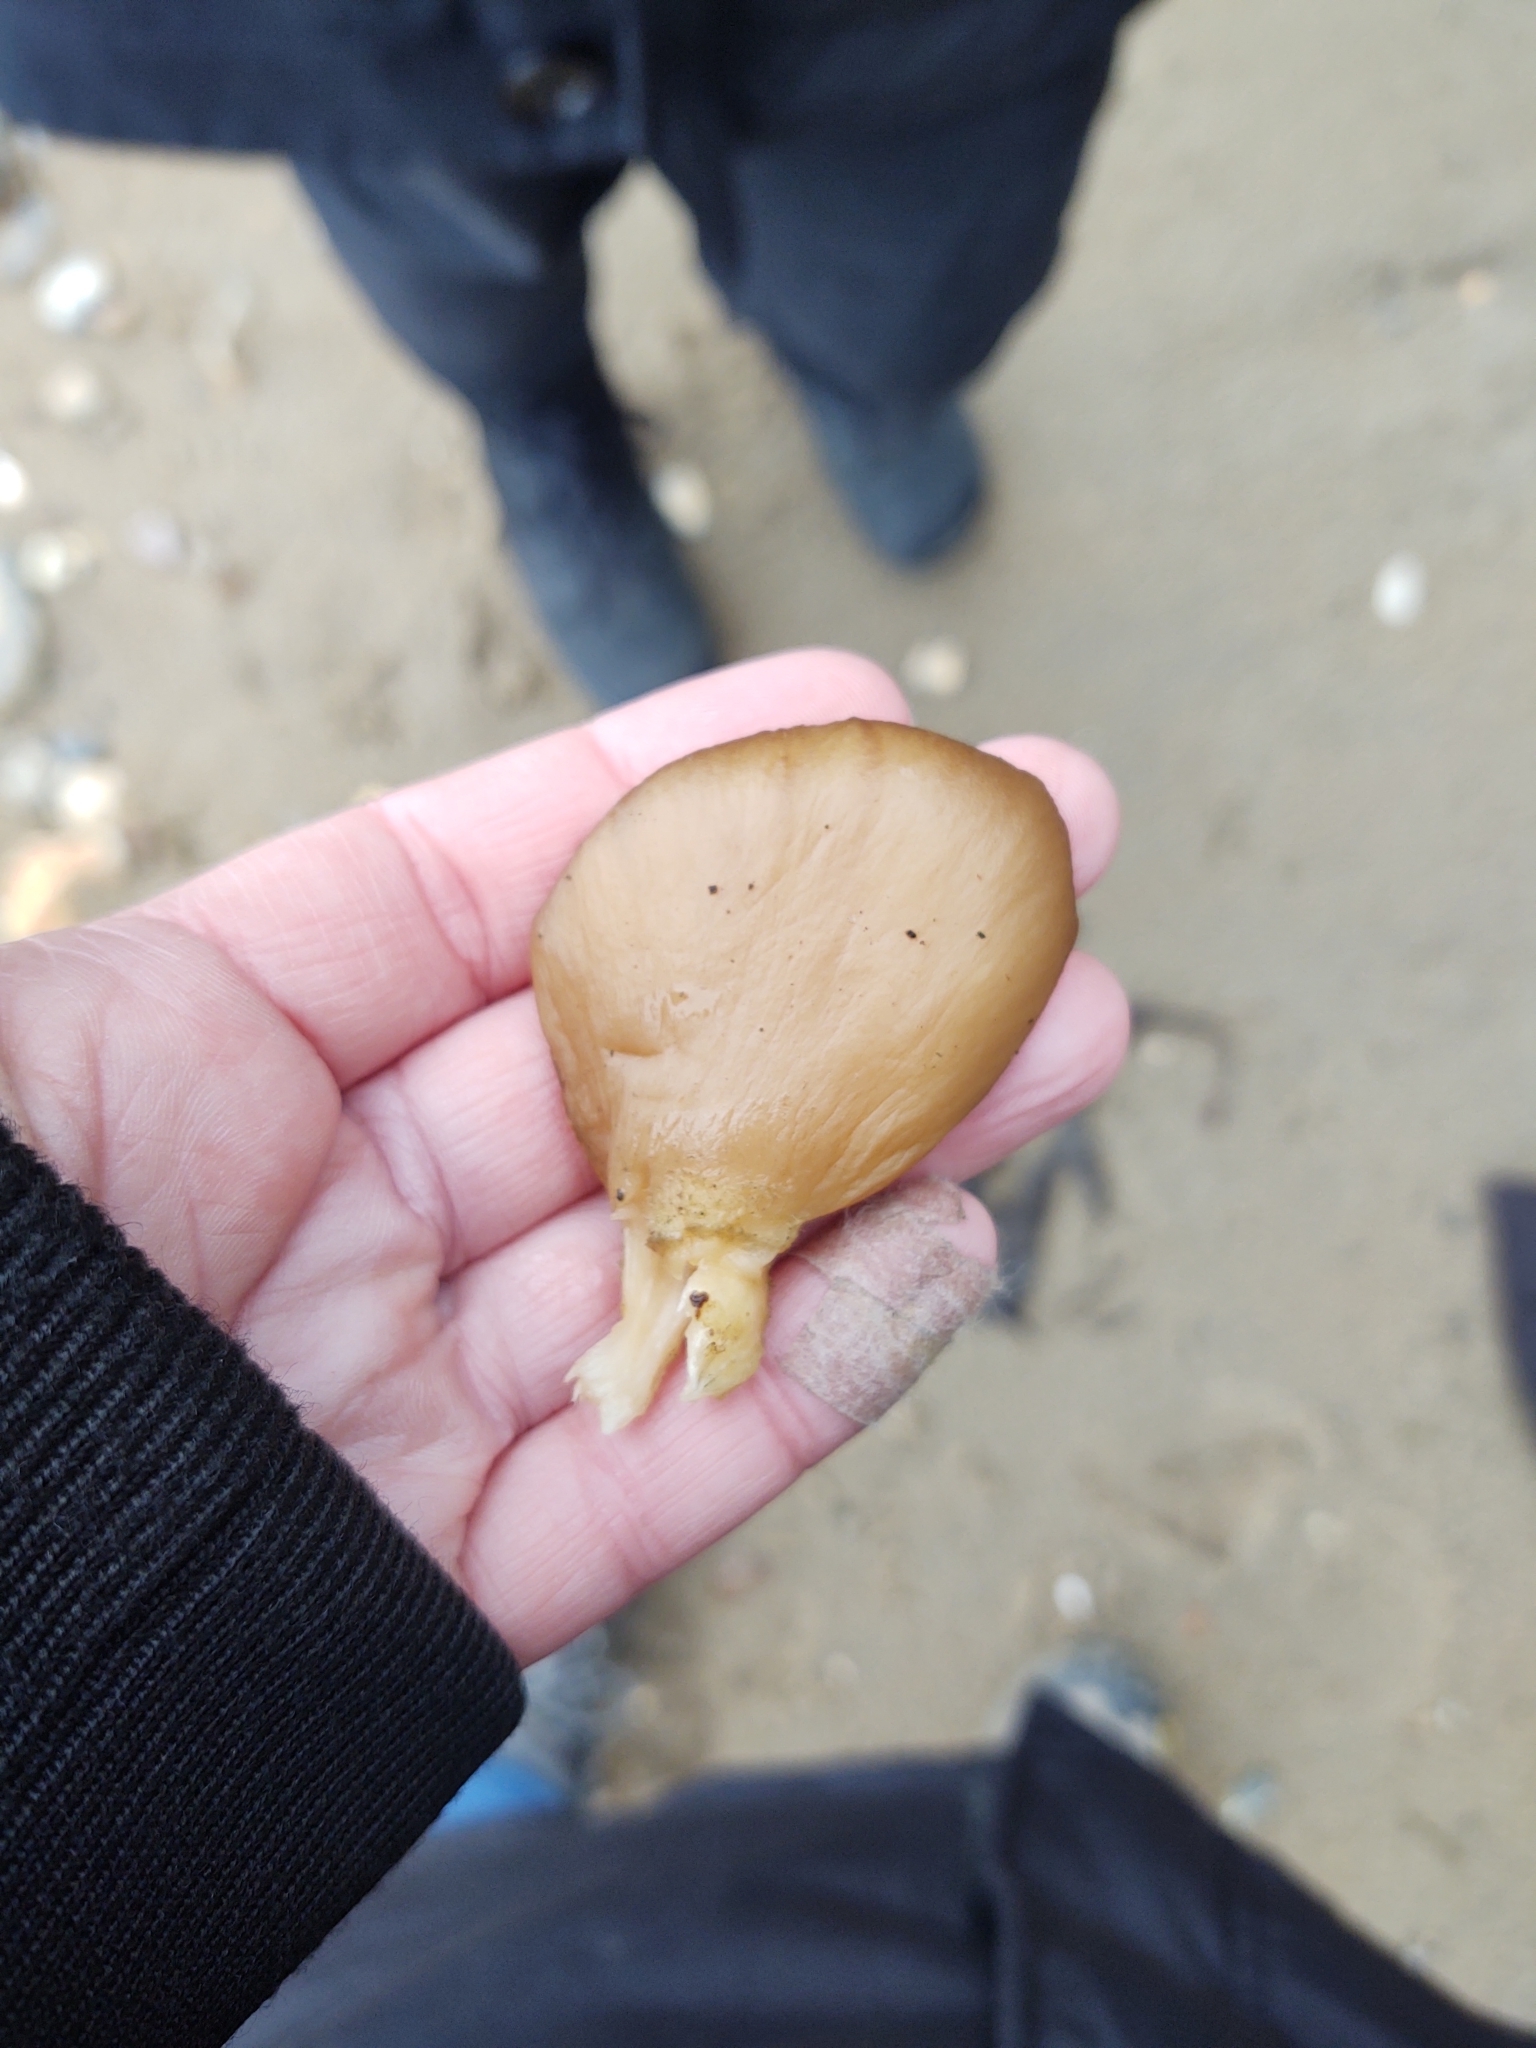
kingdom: Fungi
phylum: Basidiomycota
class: Agaricomycetes
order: Agaricales
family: Pleurotaceae
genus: Pleurotus
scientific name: Pleurotus ostreatus
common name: Oyster mushroom
